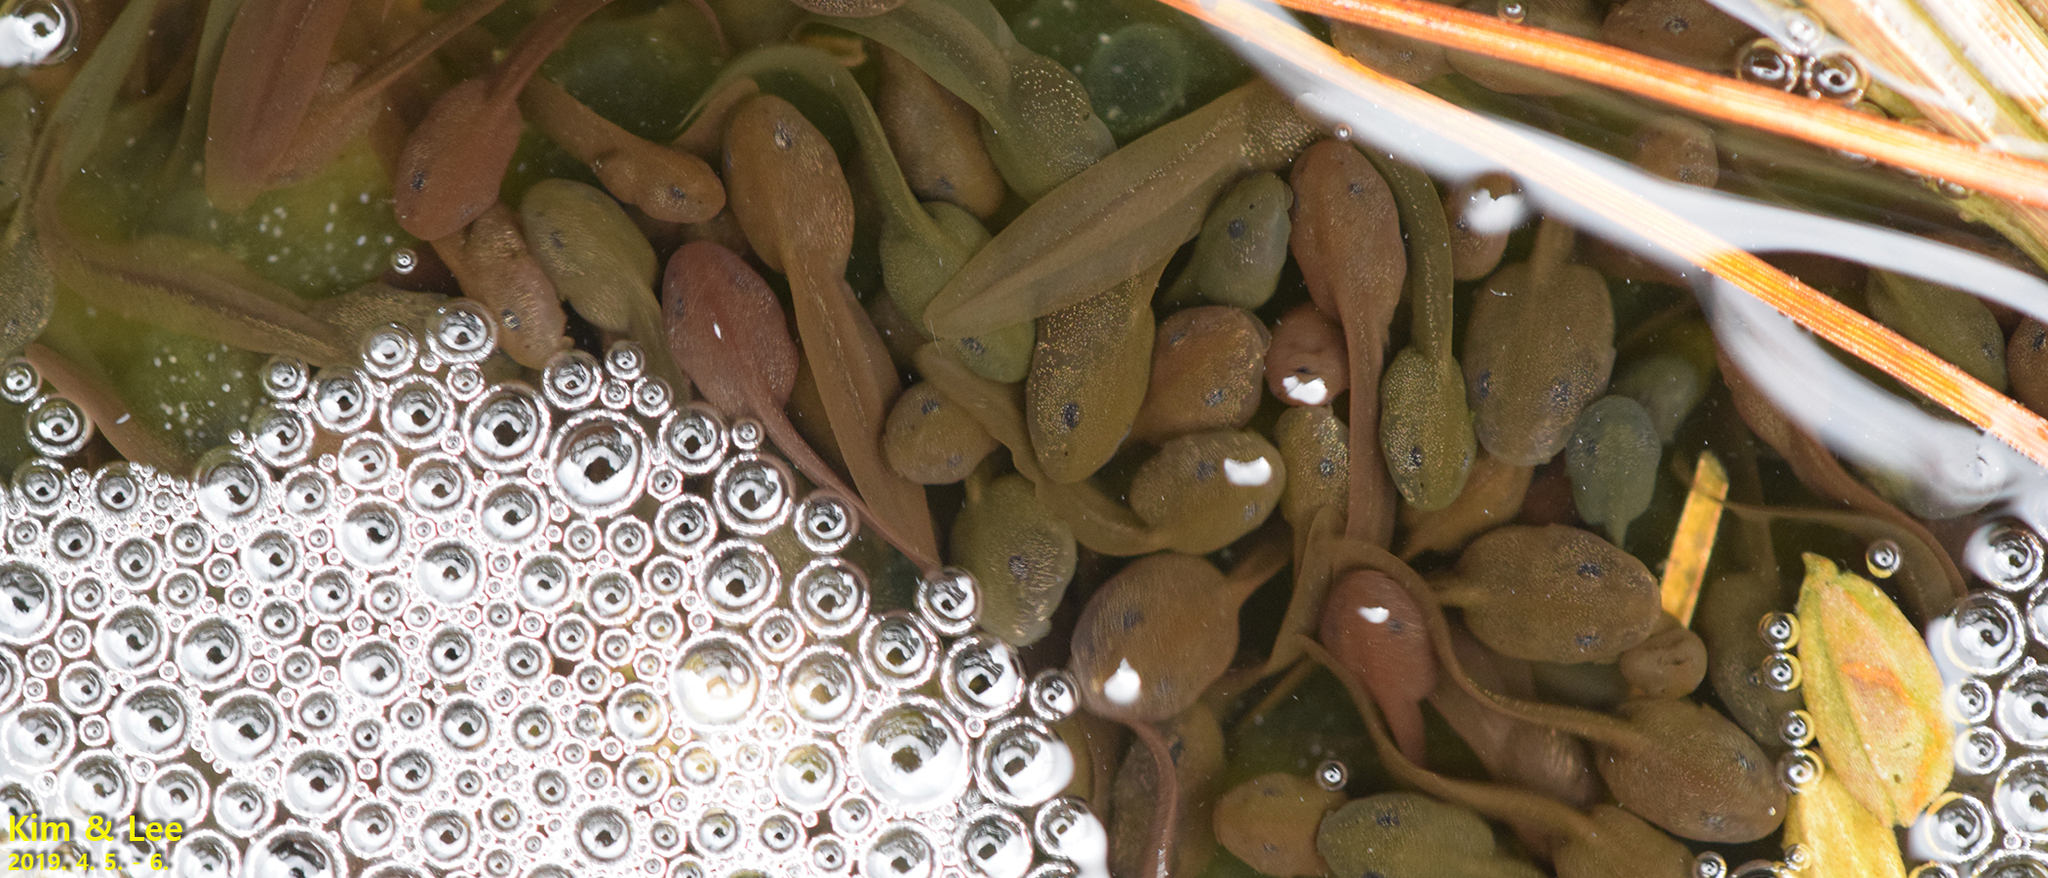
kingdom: Animalia
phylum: Chordata
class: Amphibia
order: Anura
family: Ranidae
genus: Rana
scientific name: Rana uenoi
